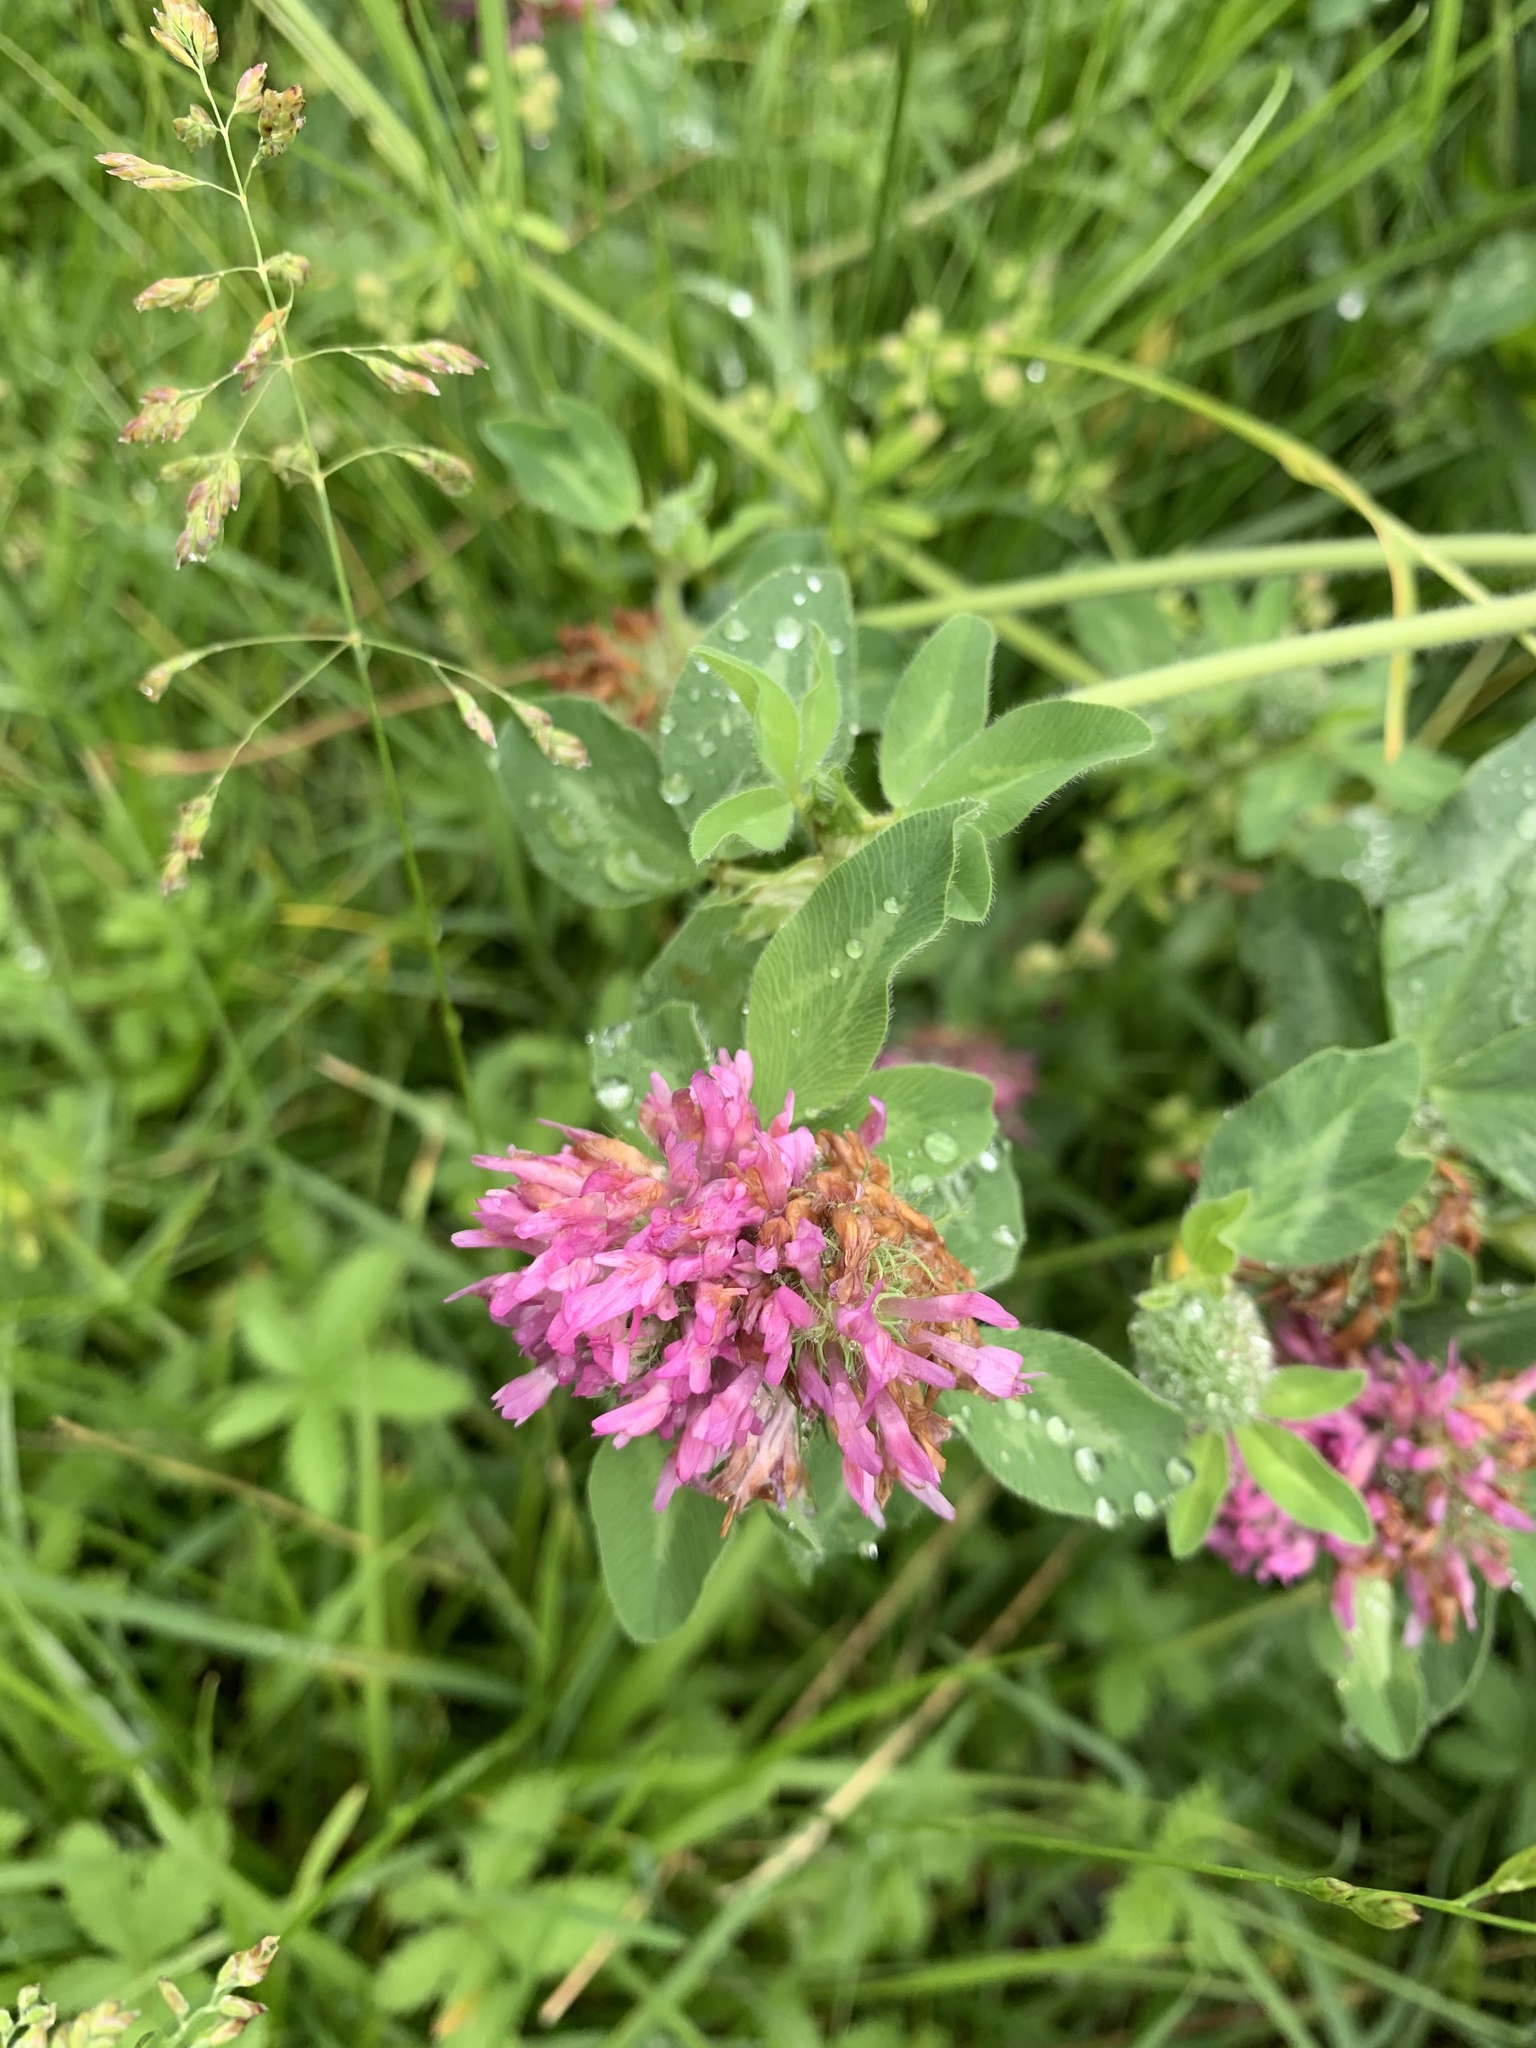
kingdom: Plantae
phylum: Tracheophyta
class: Magnoliopsida
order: Fabales
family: Fabaceae
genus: Trifolium
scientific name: Trifolium pratense
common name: Red clover
